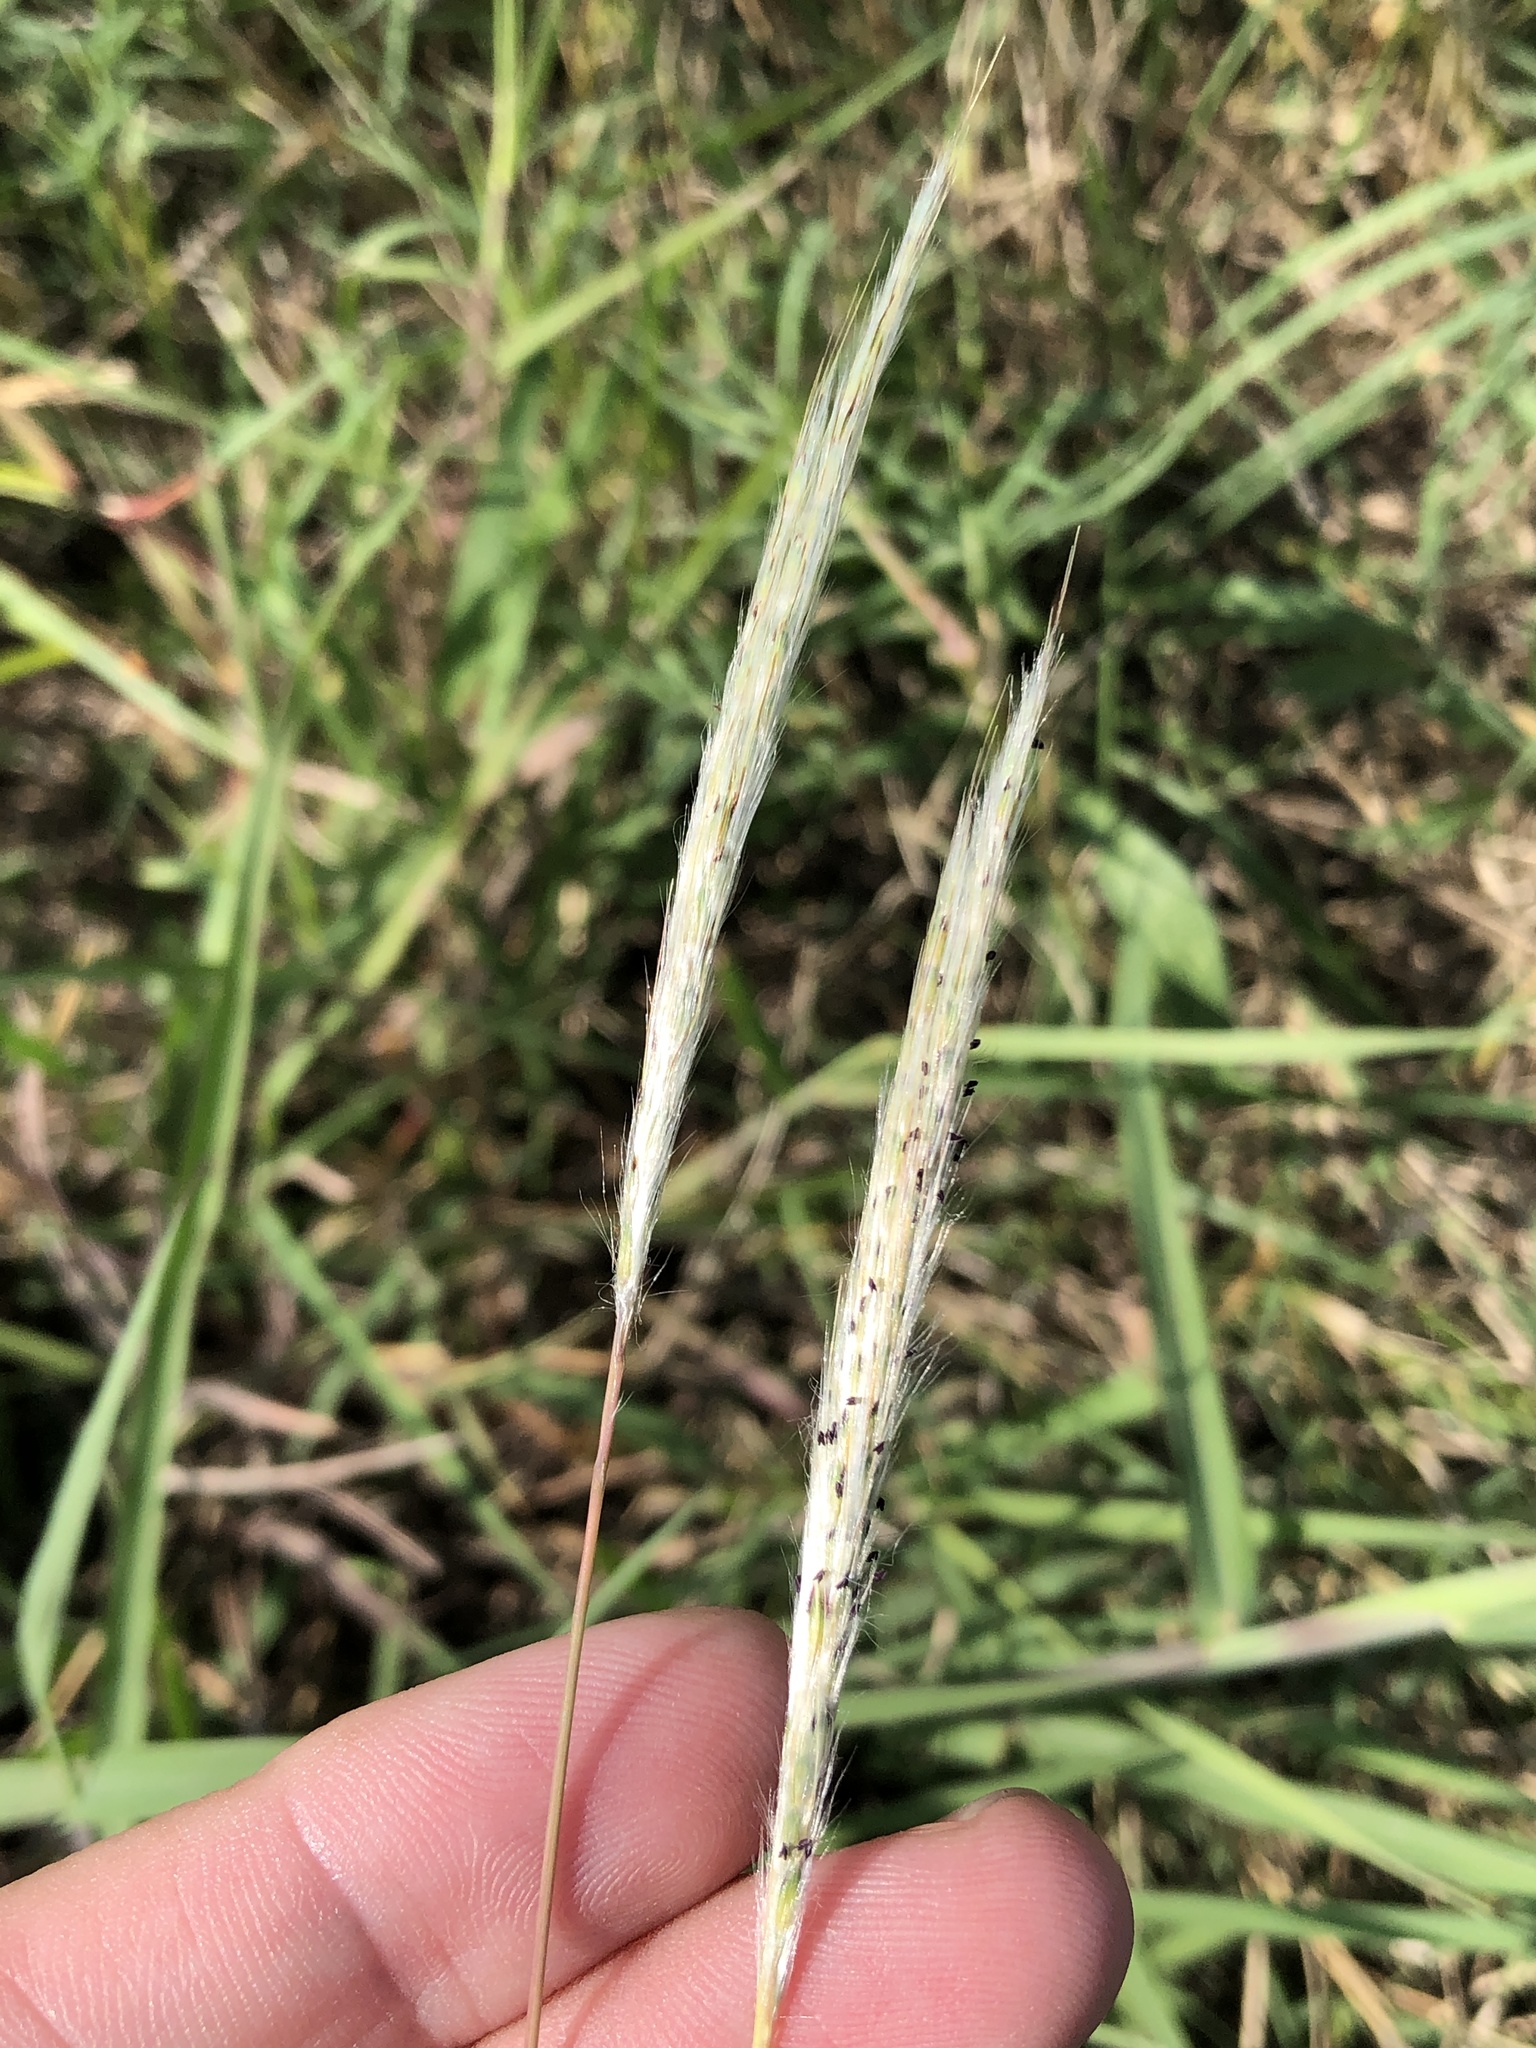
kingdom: Plantae
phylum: Tracheophyta
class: Liliopsida
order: Poales
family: Poaceae
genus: Bothriochloa
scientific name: Bothriochloa torreyana
